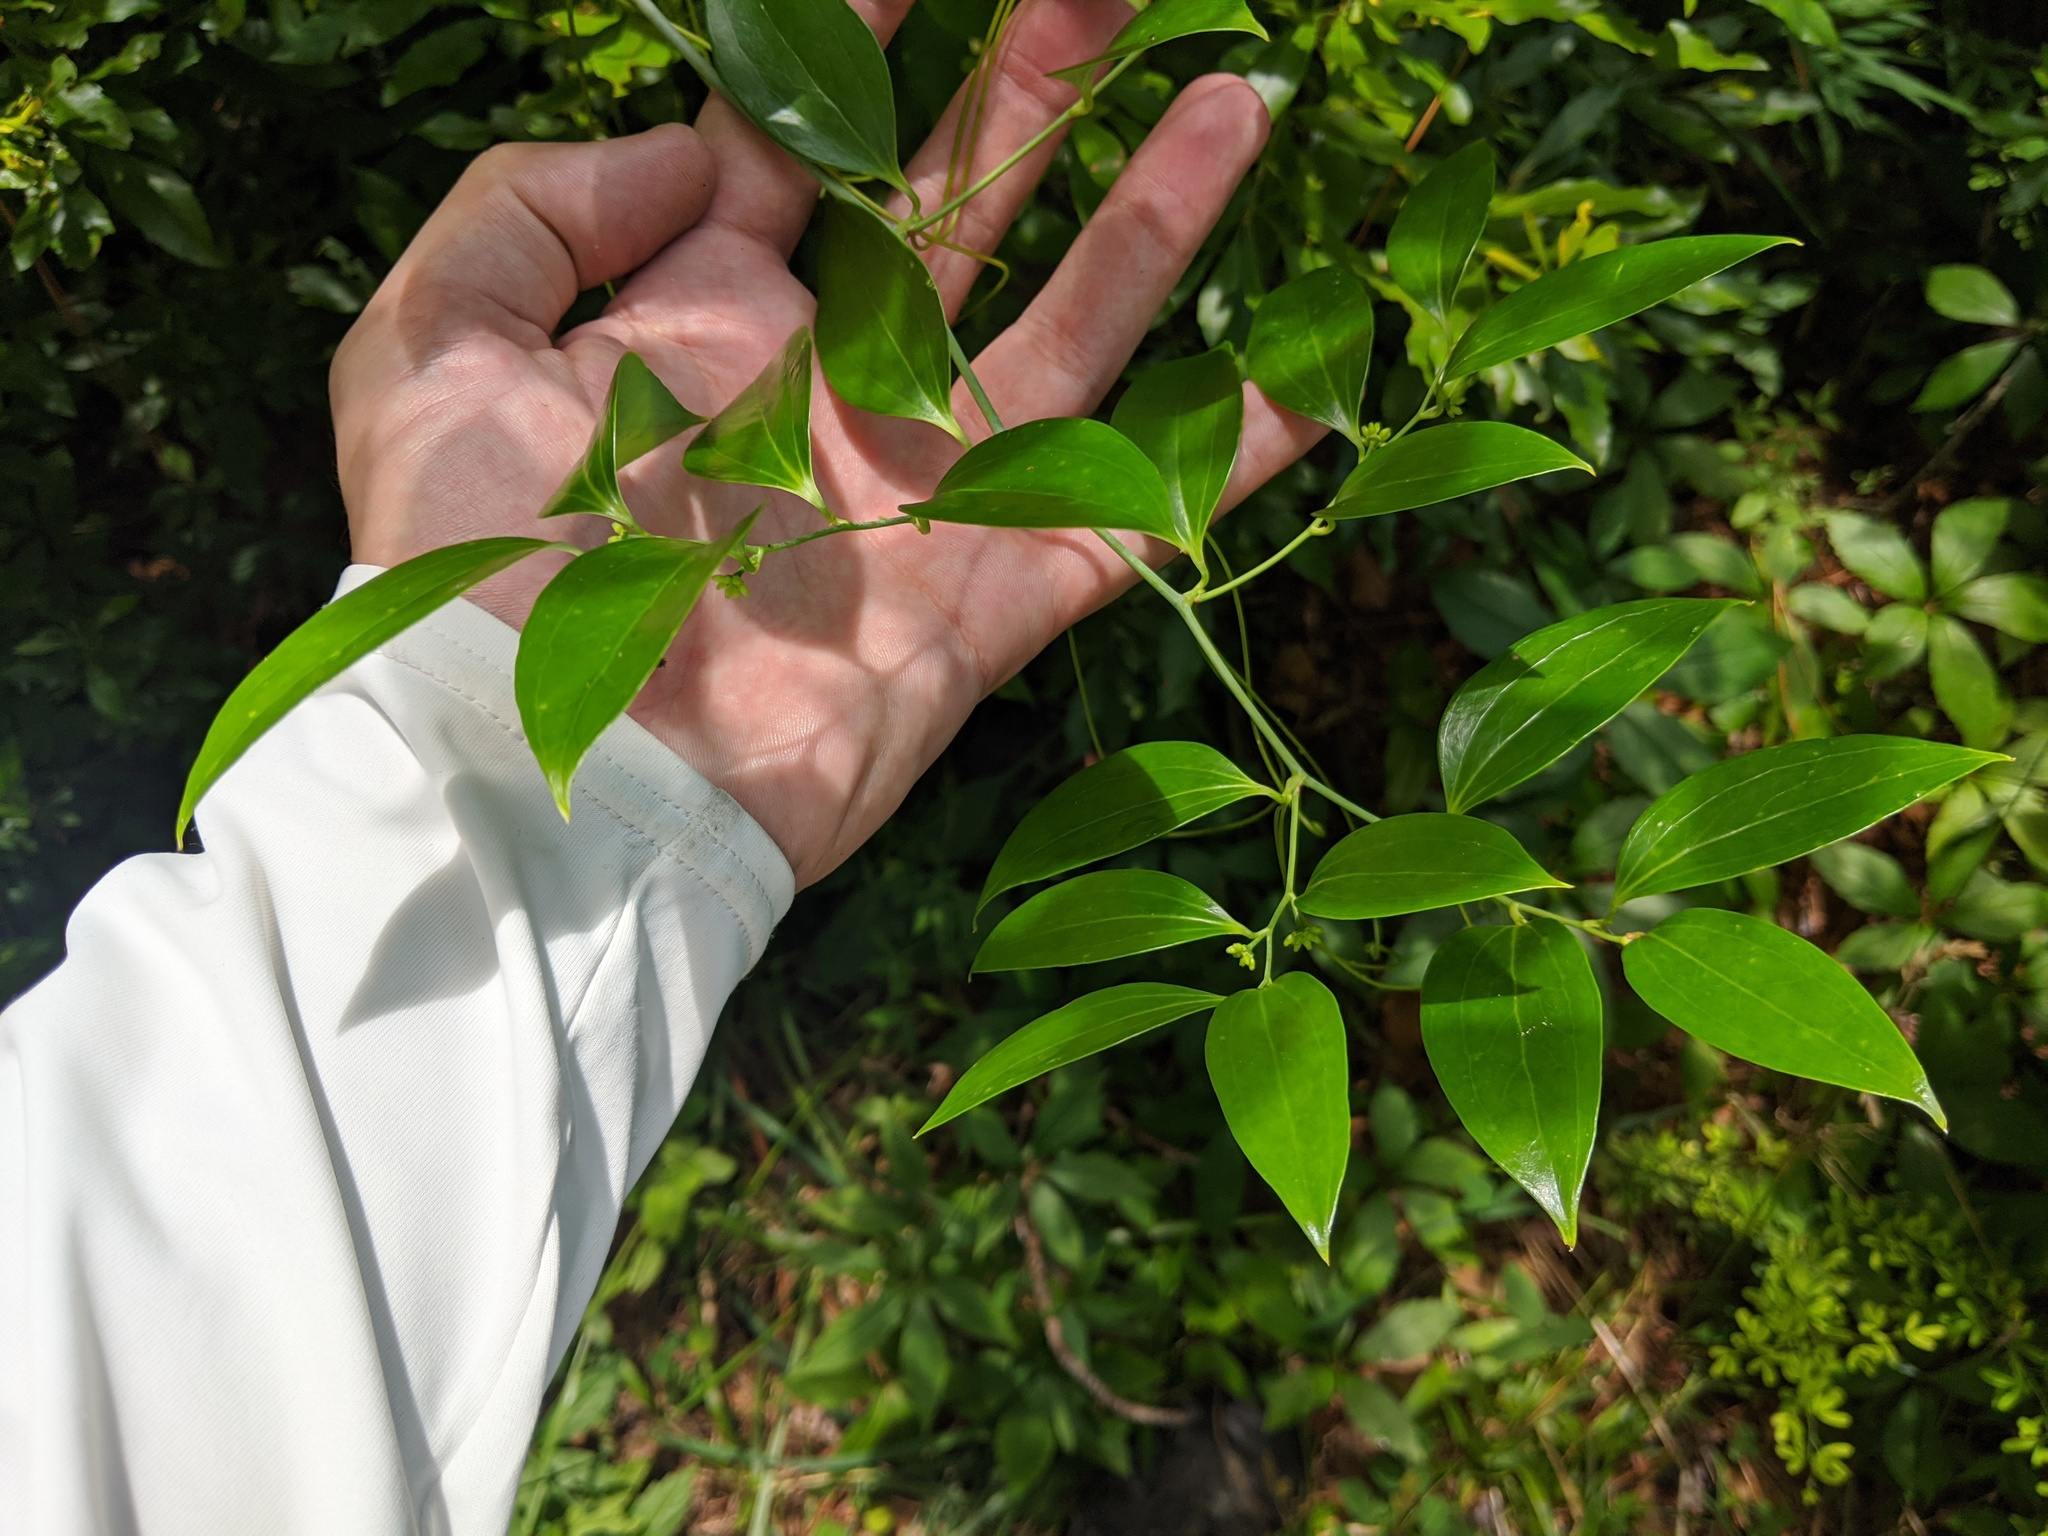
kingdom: Plantae
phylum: Tracheophyta
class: Liliopsida
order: Liliales
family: Smilacaceae
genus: Smilax
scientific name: Smilax maritima
